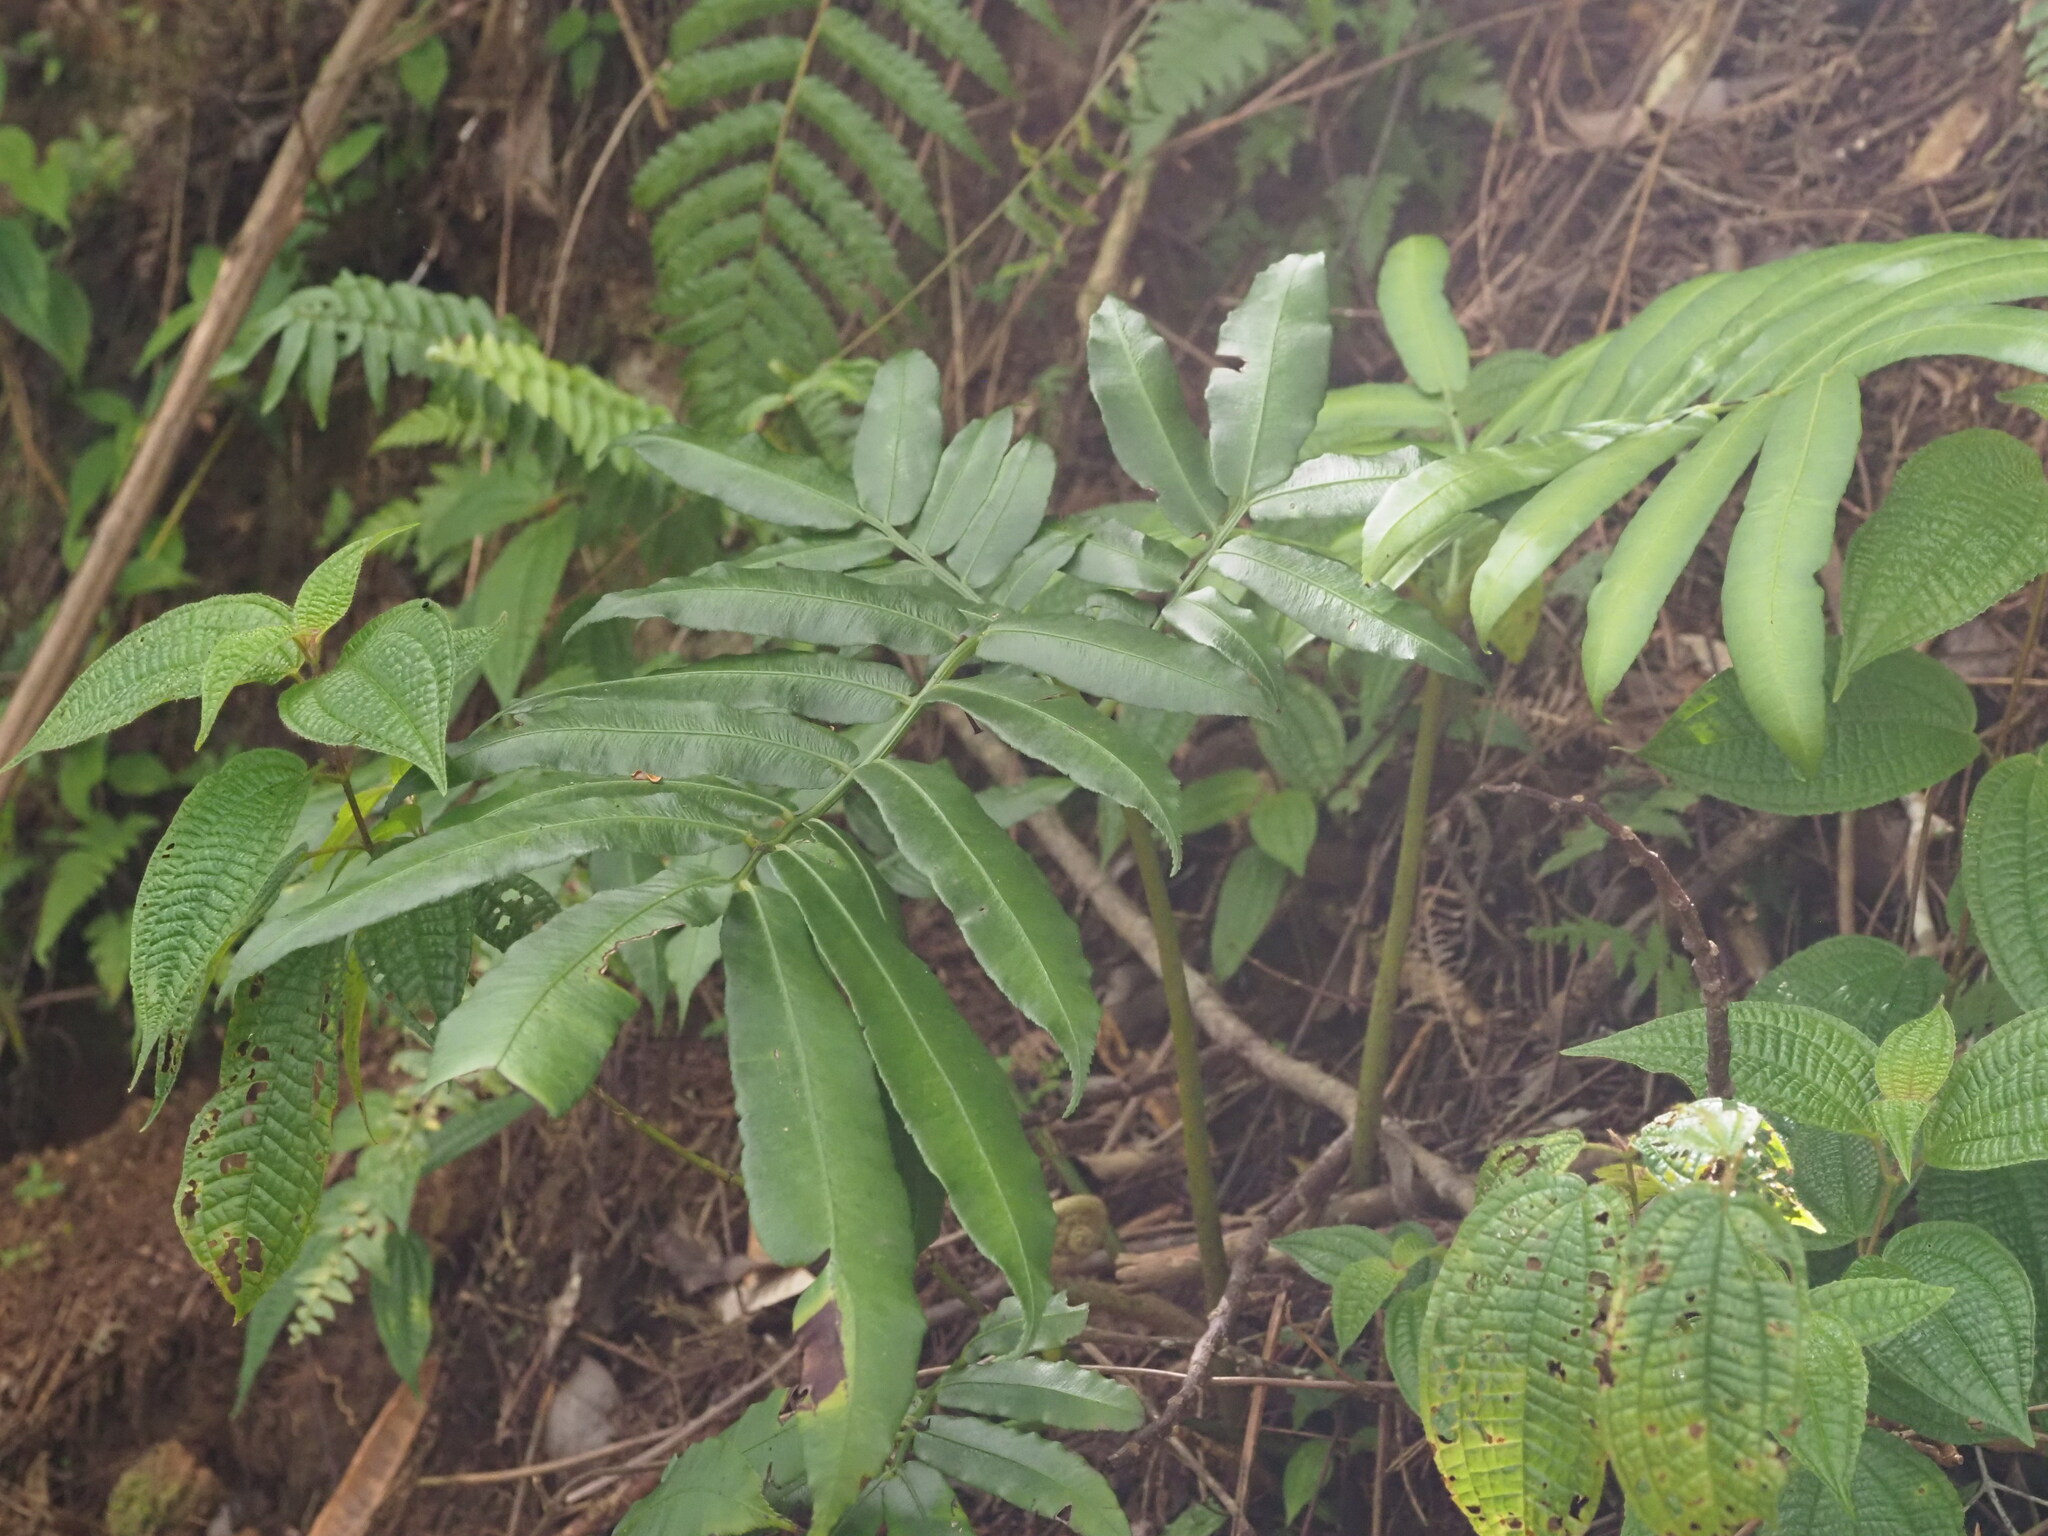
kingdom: Plantae
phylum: Tracheophyta
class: Polypodiopsida
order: Marattiales
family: Marattiaceae
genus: Angiopteris
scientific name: Angiopteris evecta
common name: Mule's-foot fern
